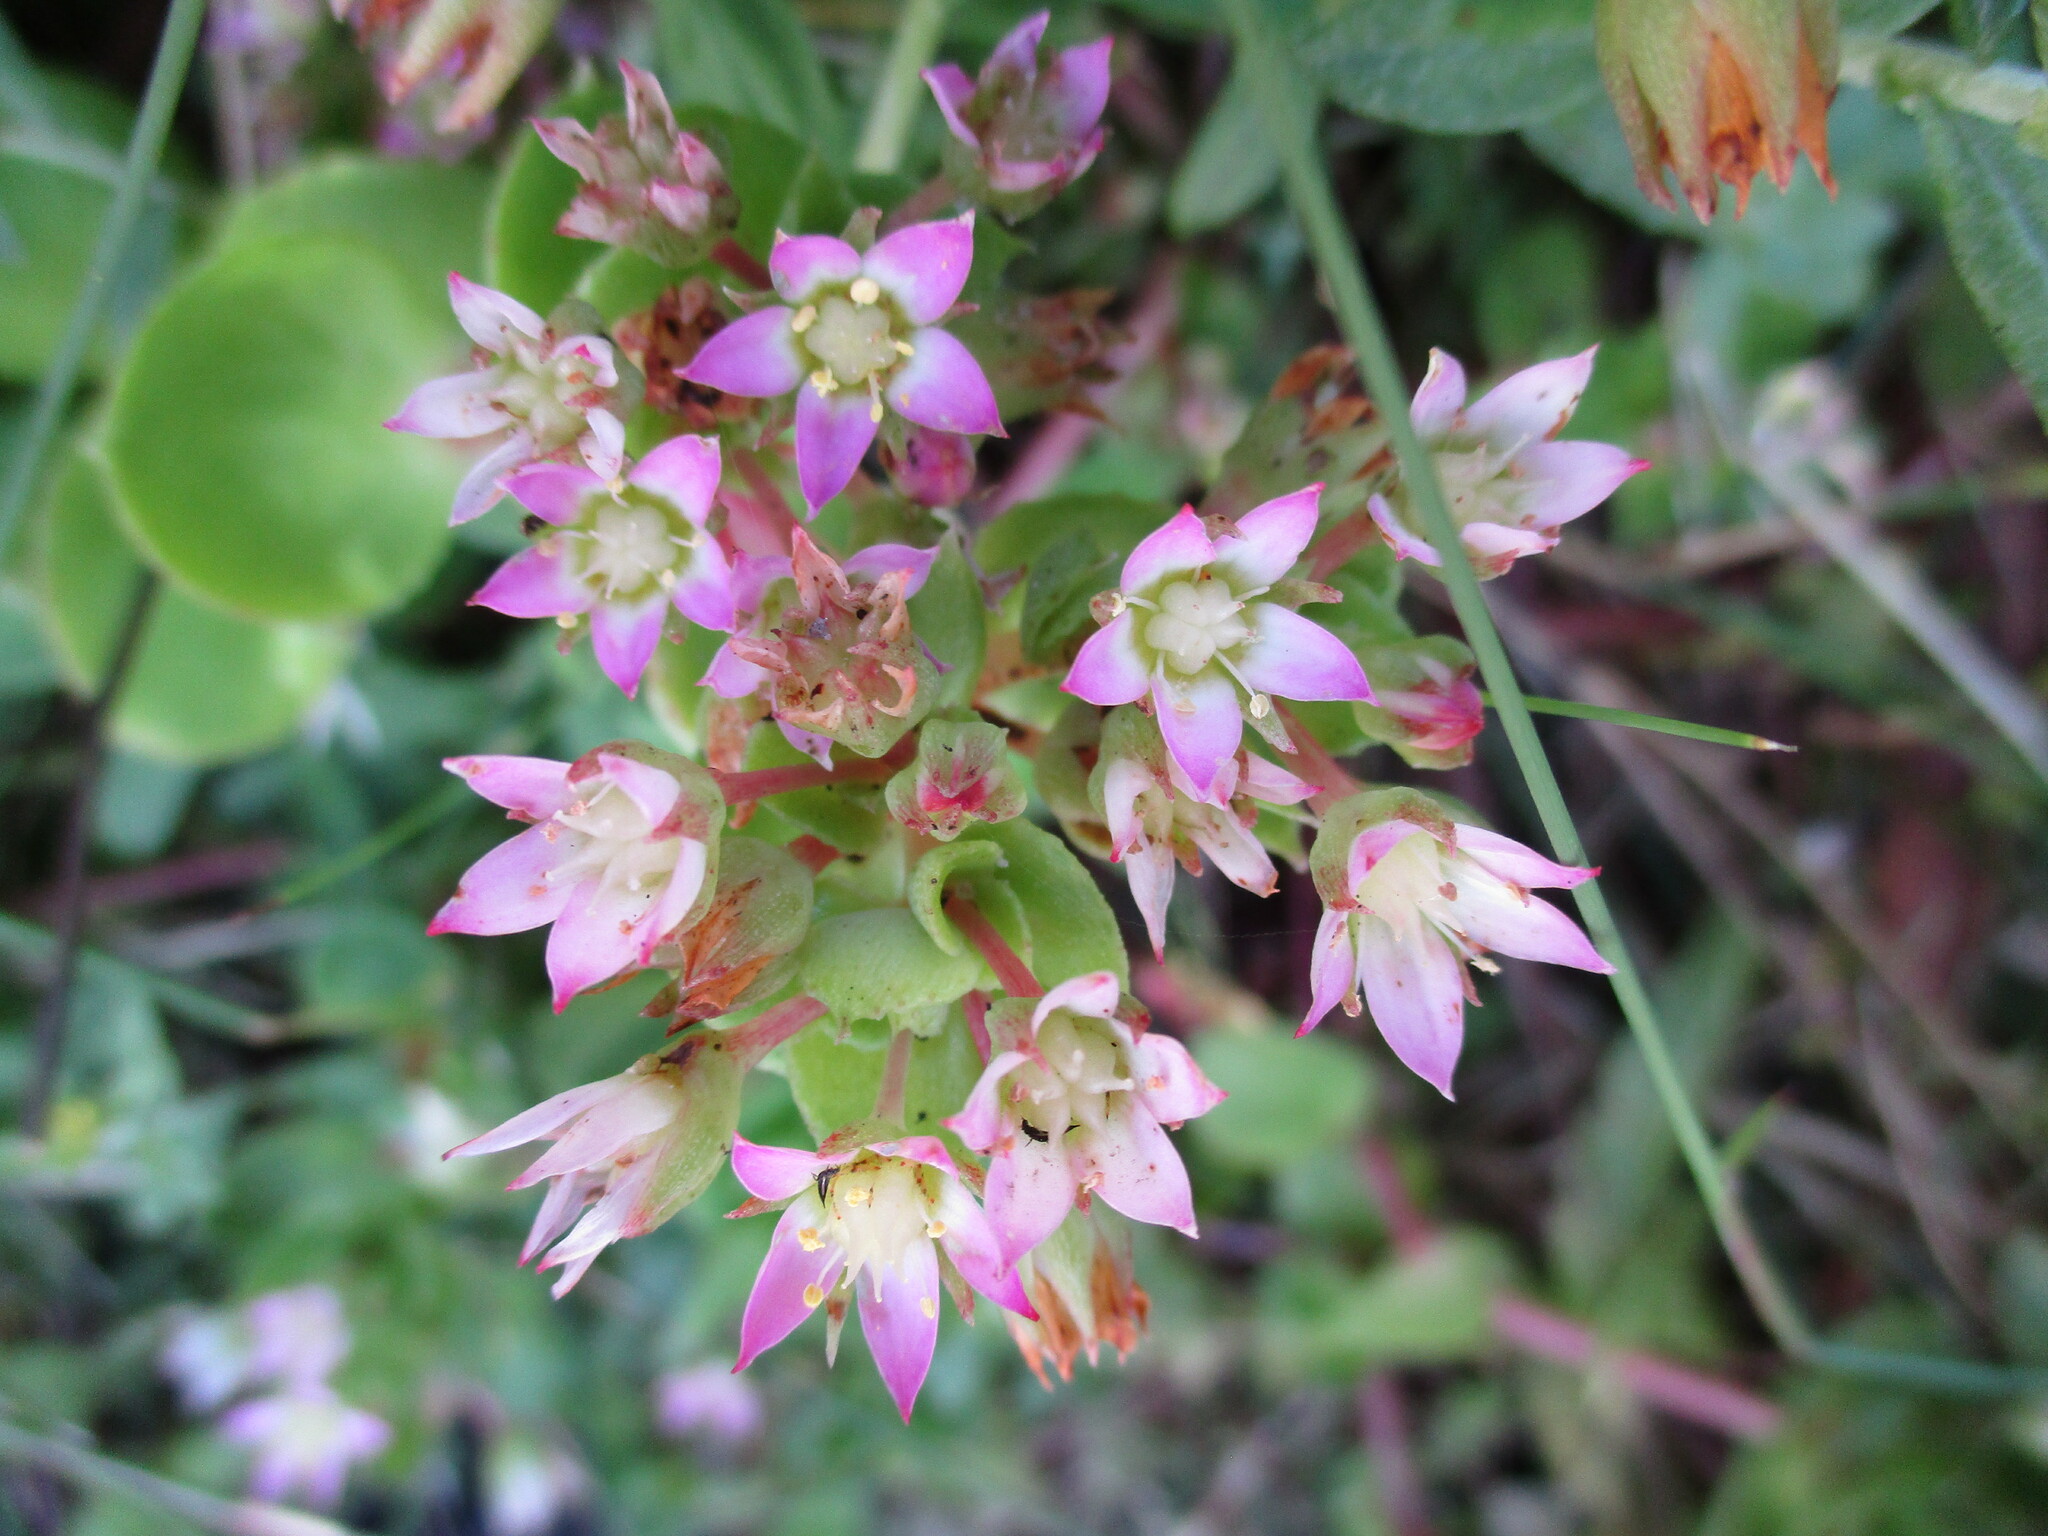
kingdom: Plantae
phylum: Tracheophyta
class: Magnoliopsida
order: Saxifragales
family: Crassulaceae
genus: Crassula
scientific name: Crassula pellucida
